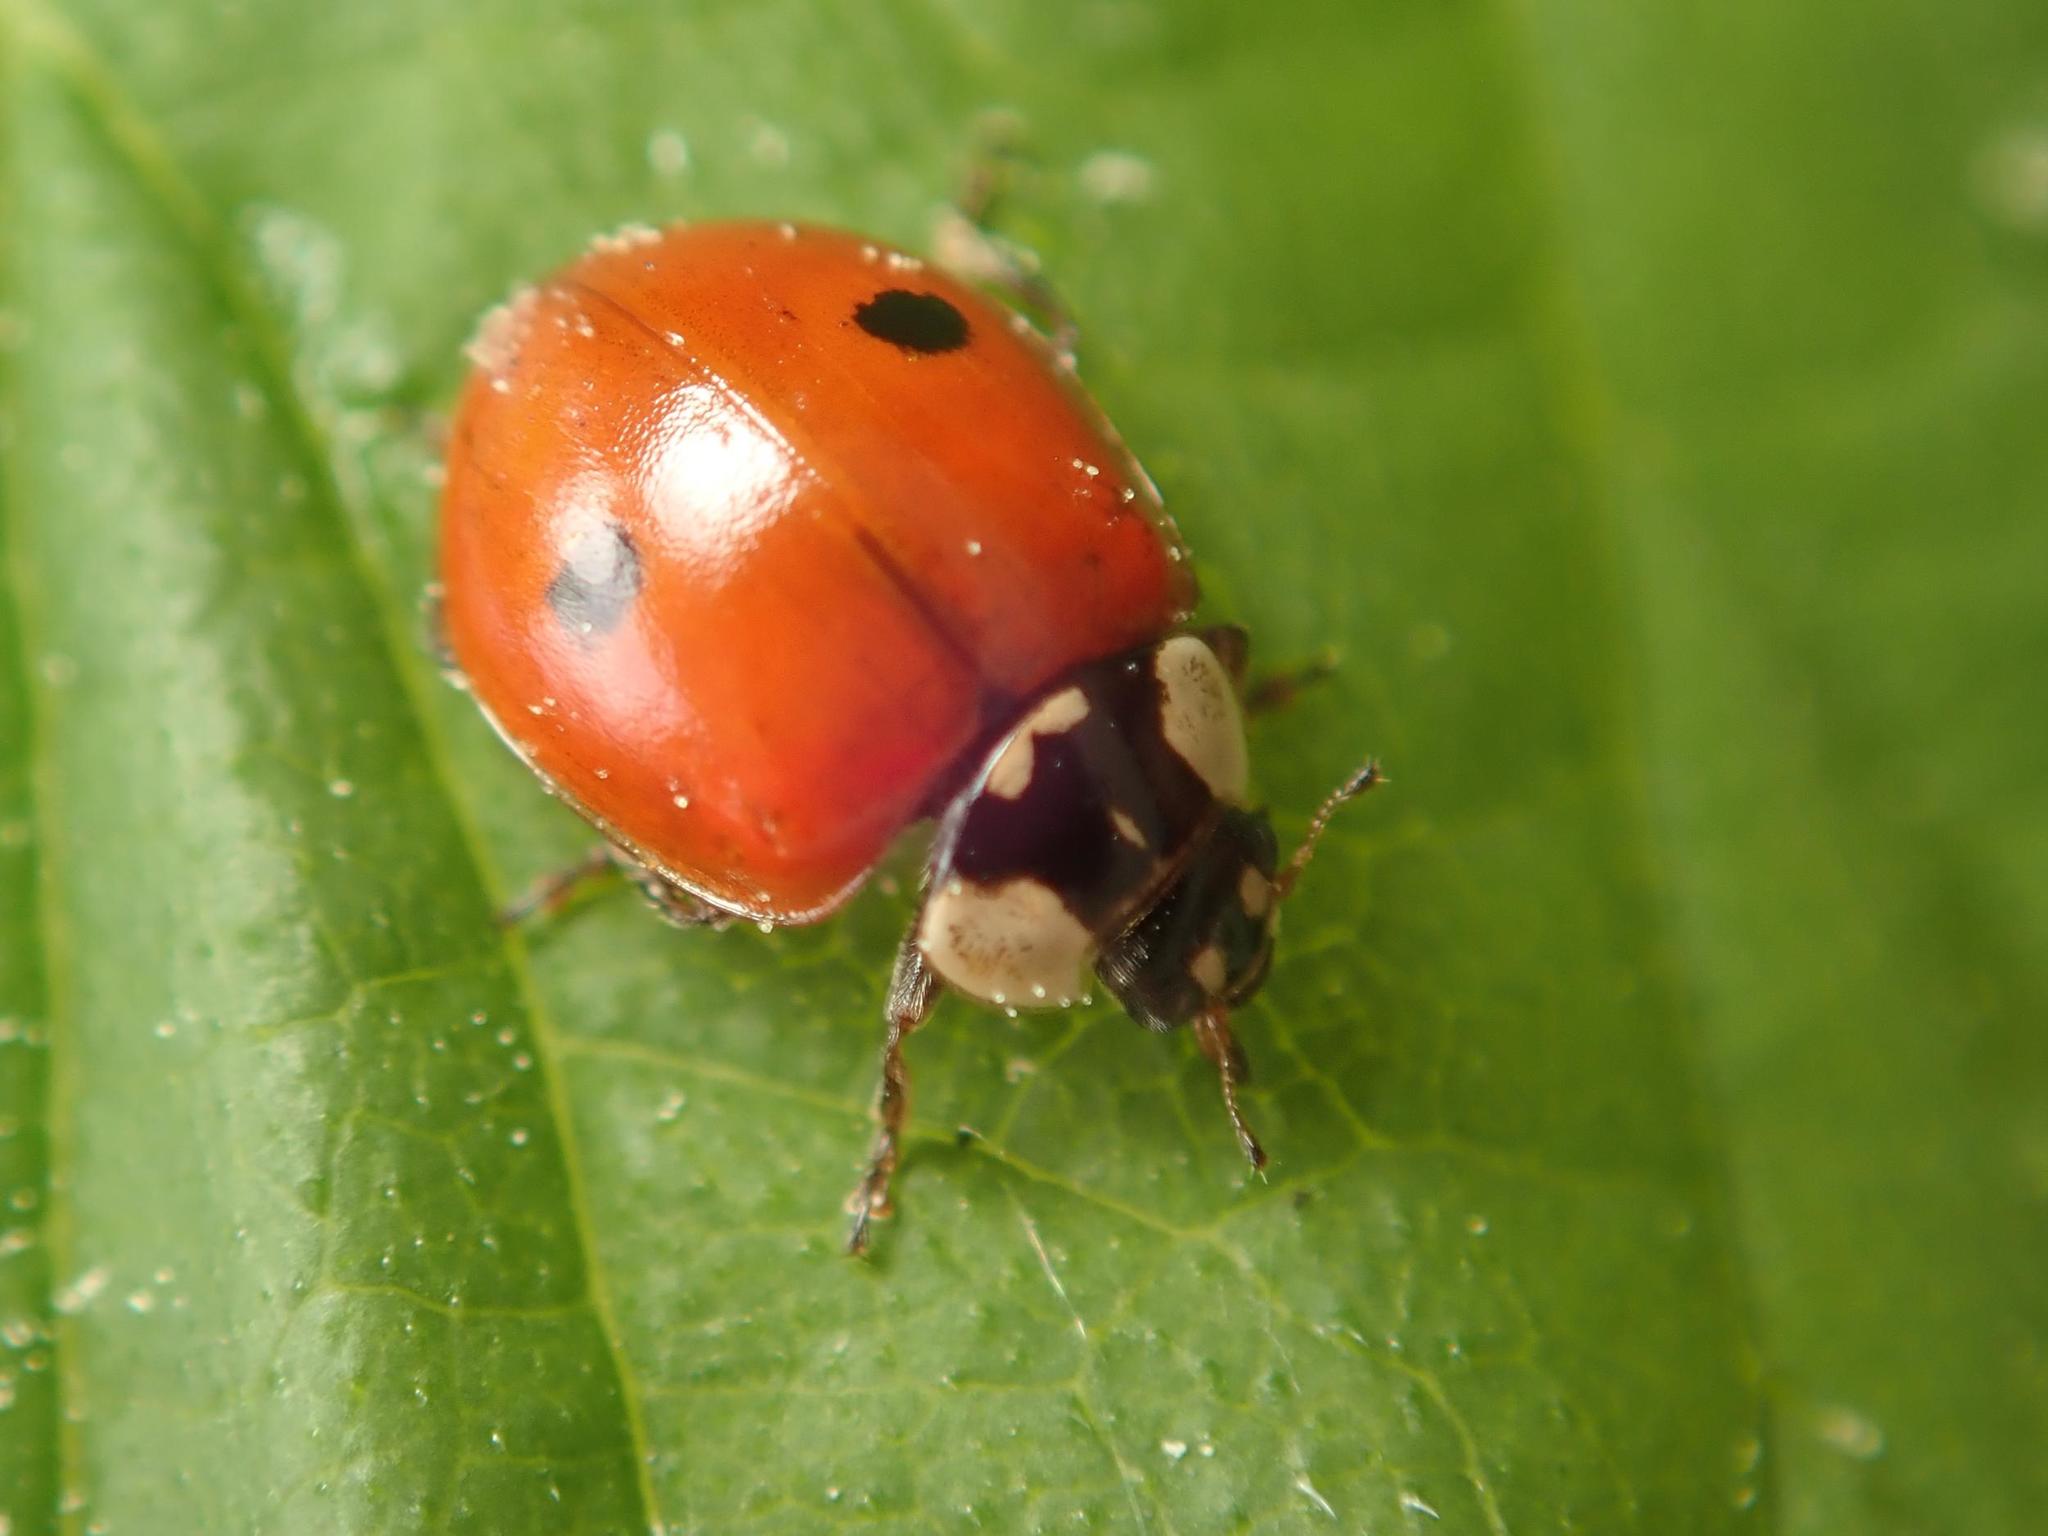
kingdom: Animalia
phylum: Arthropoda
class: Insecta
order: Coleoptera
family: Coccinellidae
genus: Adalia
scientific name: Adalia bipunctata
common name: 2-spot ladybird
